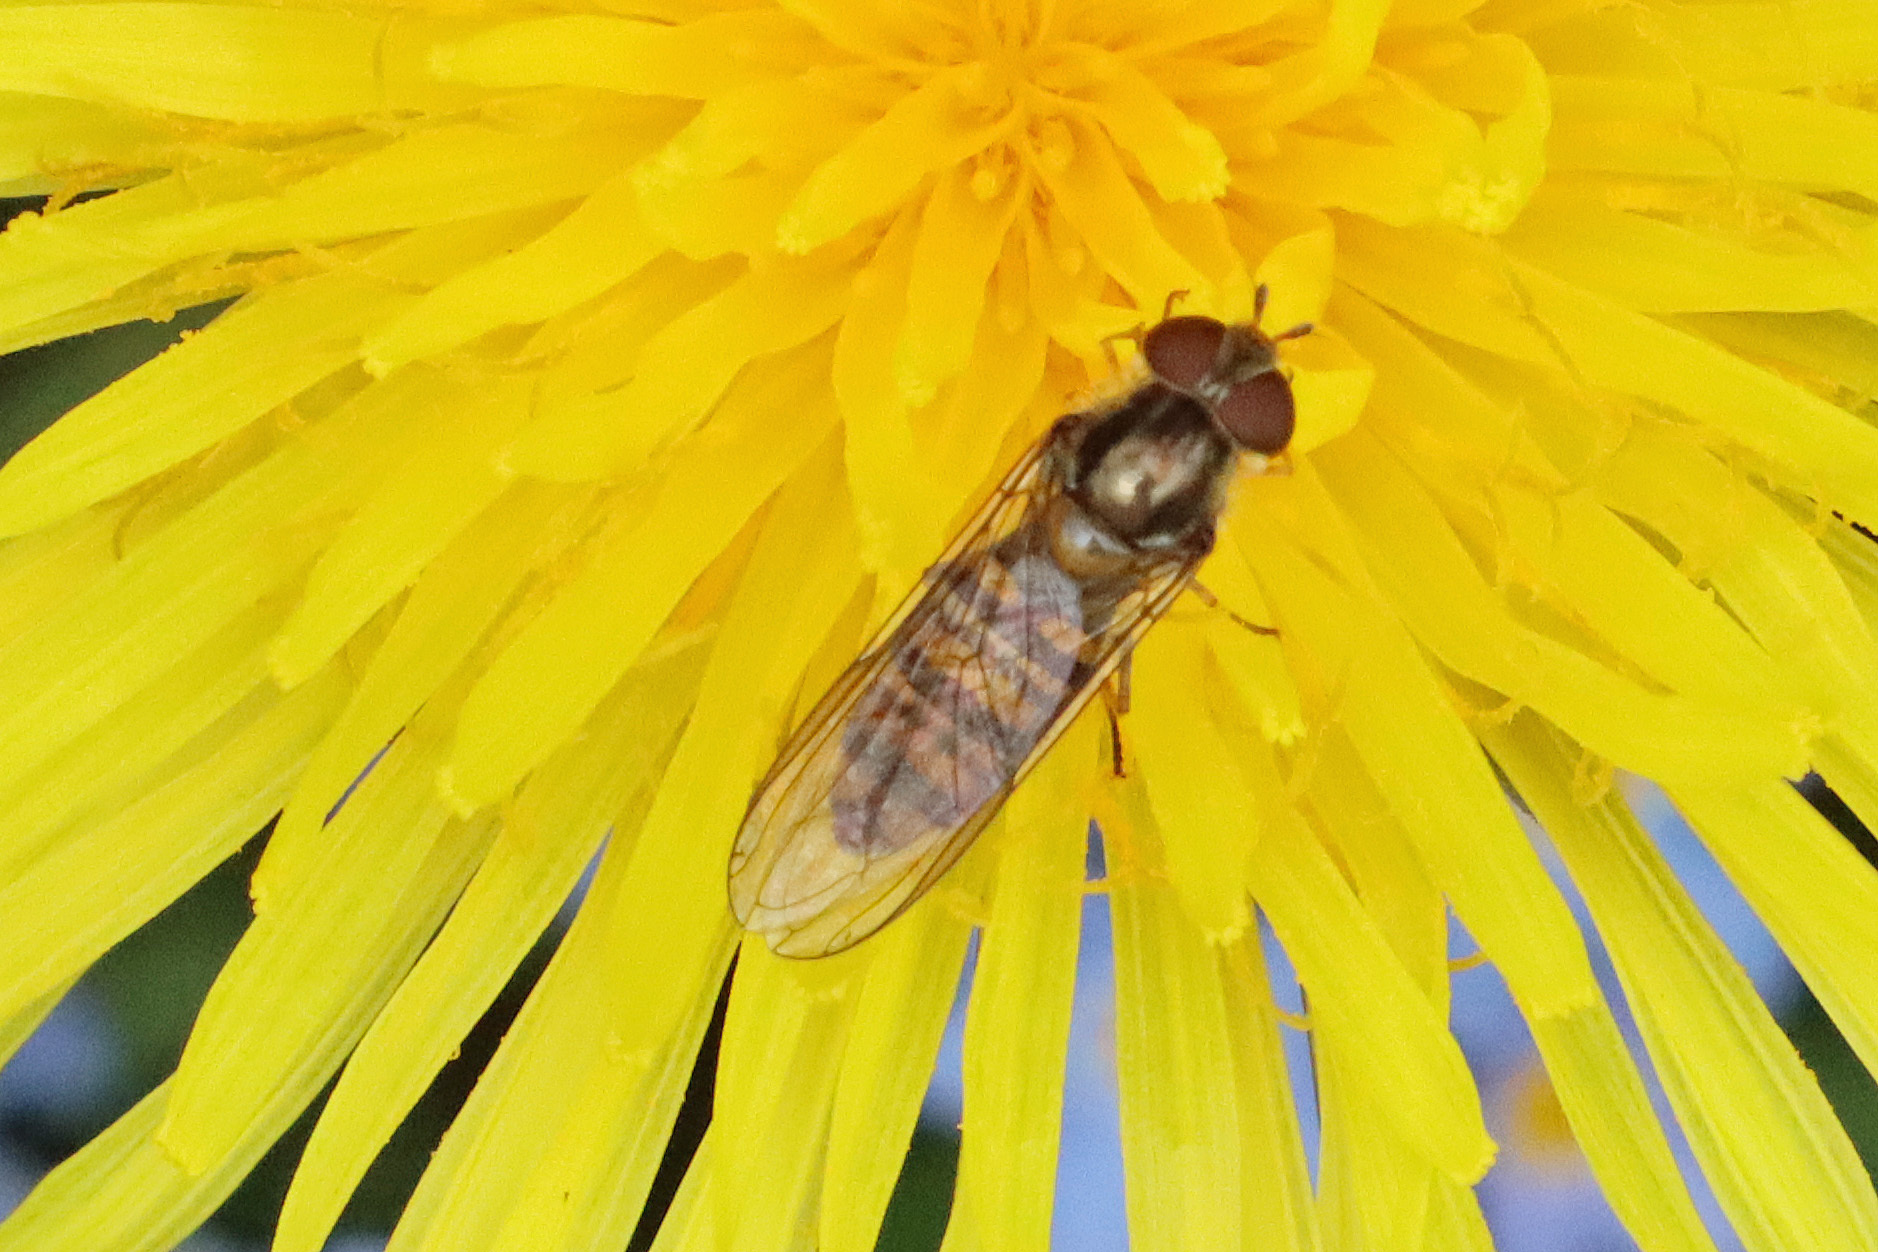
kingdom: Animalia
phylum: Arthropoda
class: Insecta
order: Diptera
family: Syrphidae
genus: Episyrphus
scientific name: Episyrphus balteatus
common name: Marmalade hoverfly
